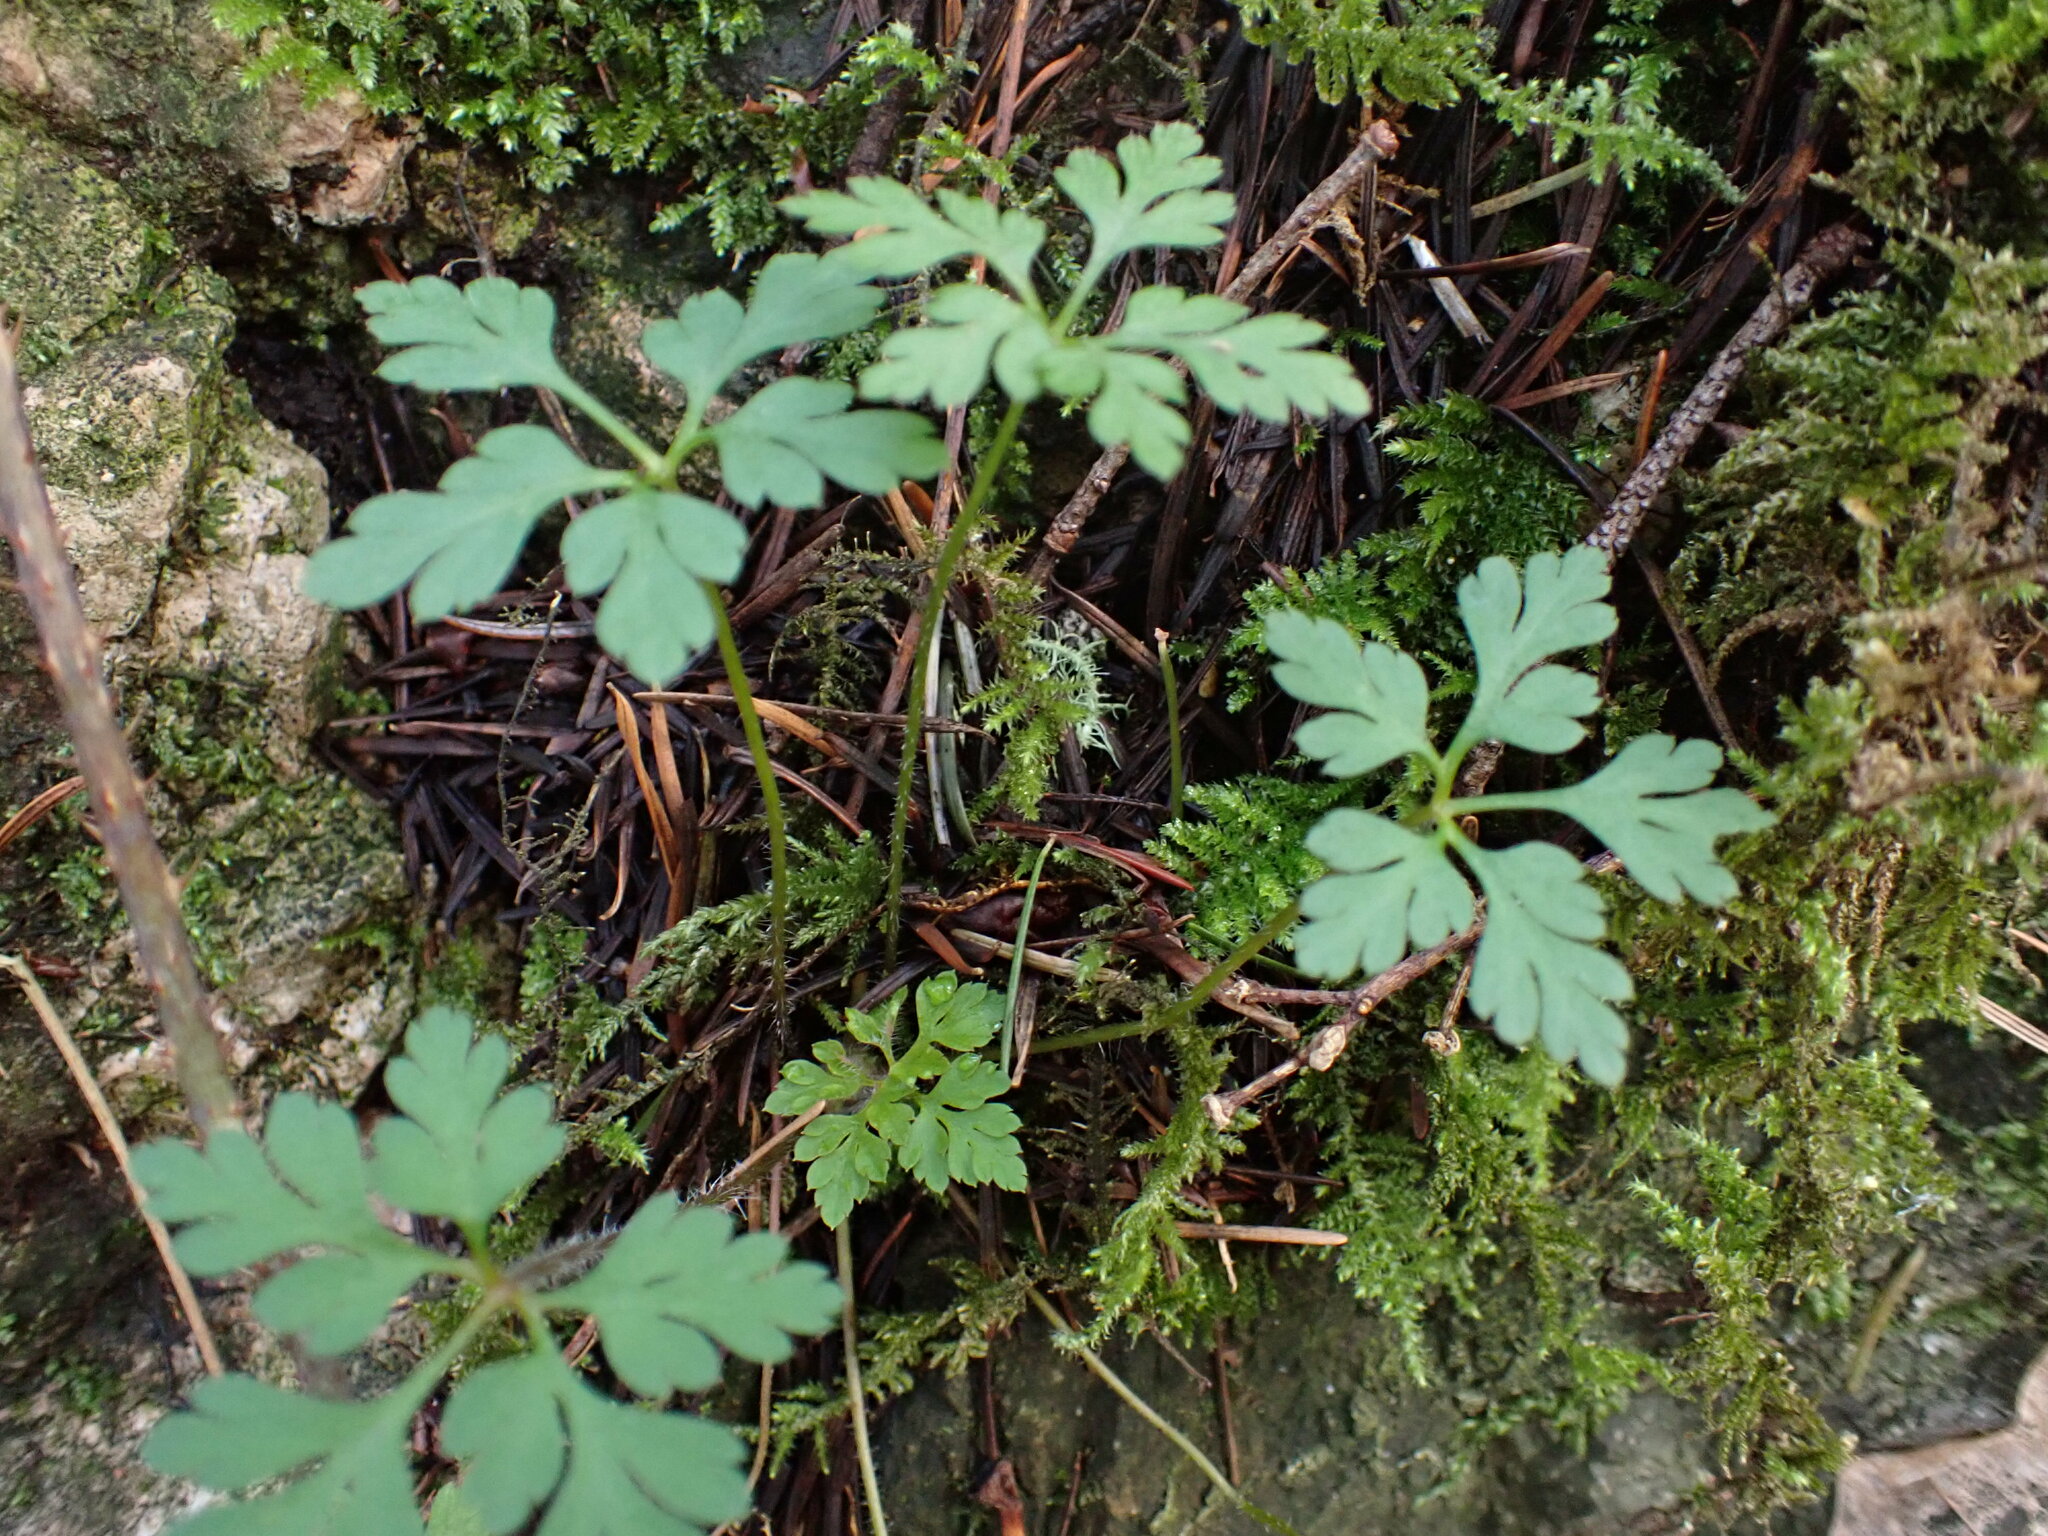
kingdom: Plantae
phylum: Tracheophyta
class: Magnoliopsida
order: Geraniales
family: Geraniaceae
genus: Geranium
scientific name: Geranium robertianum
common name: Herb-robert
